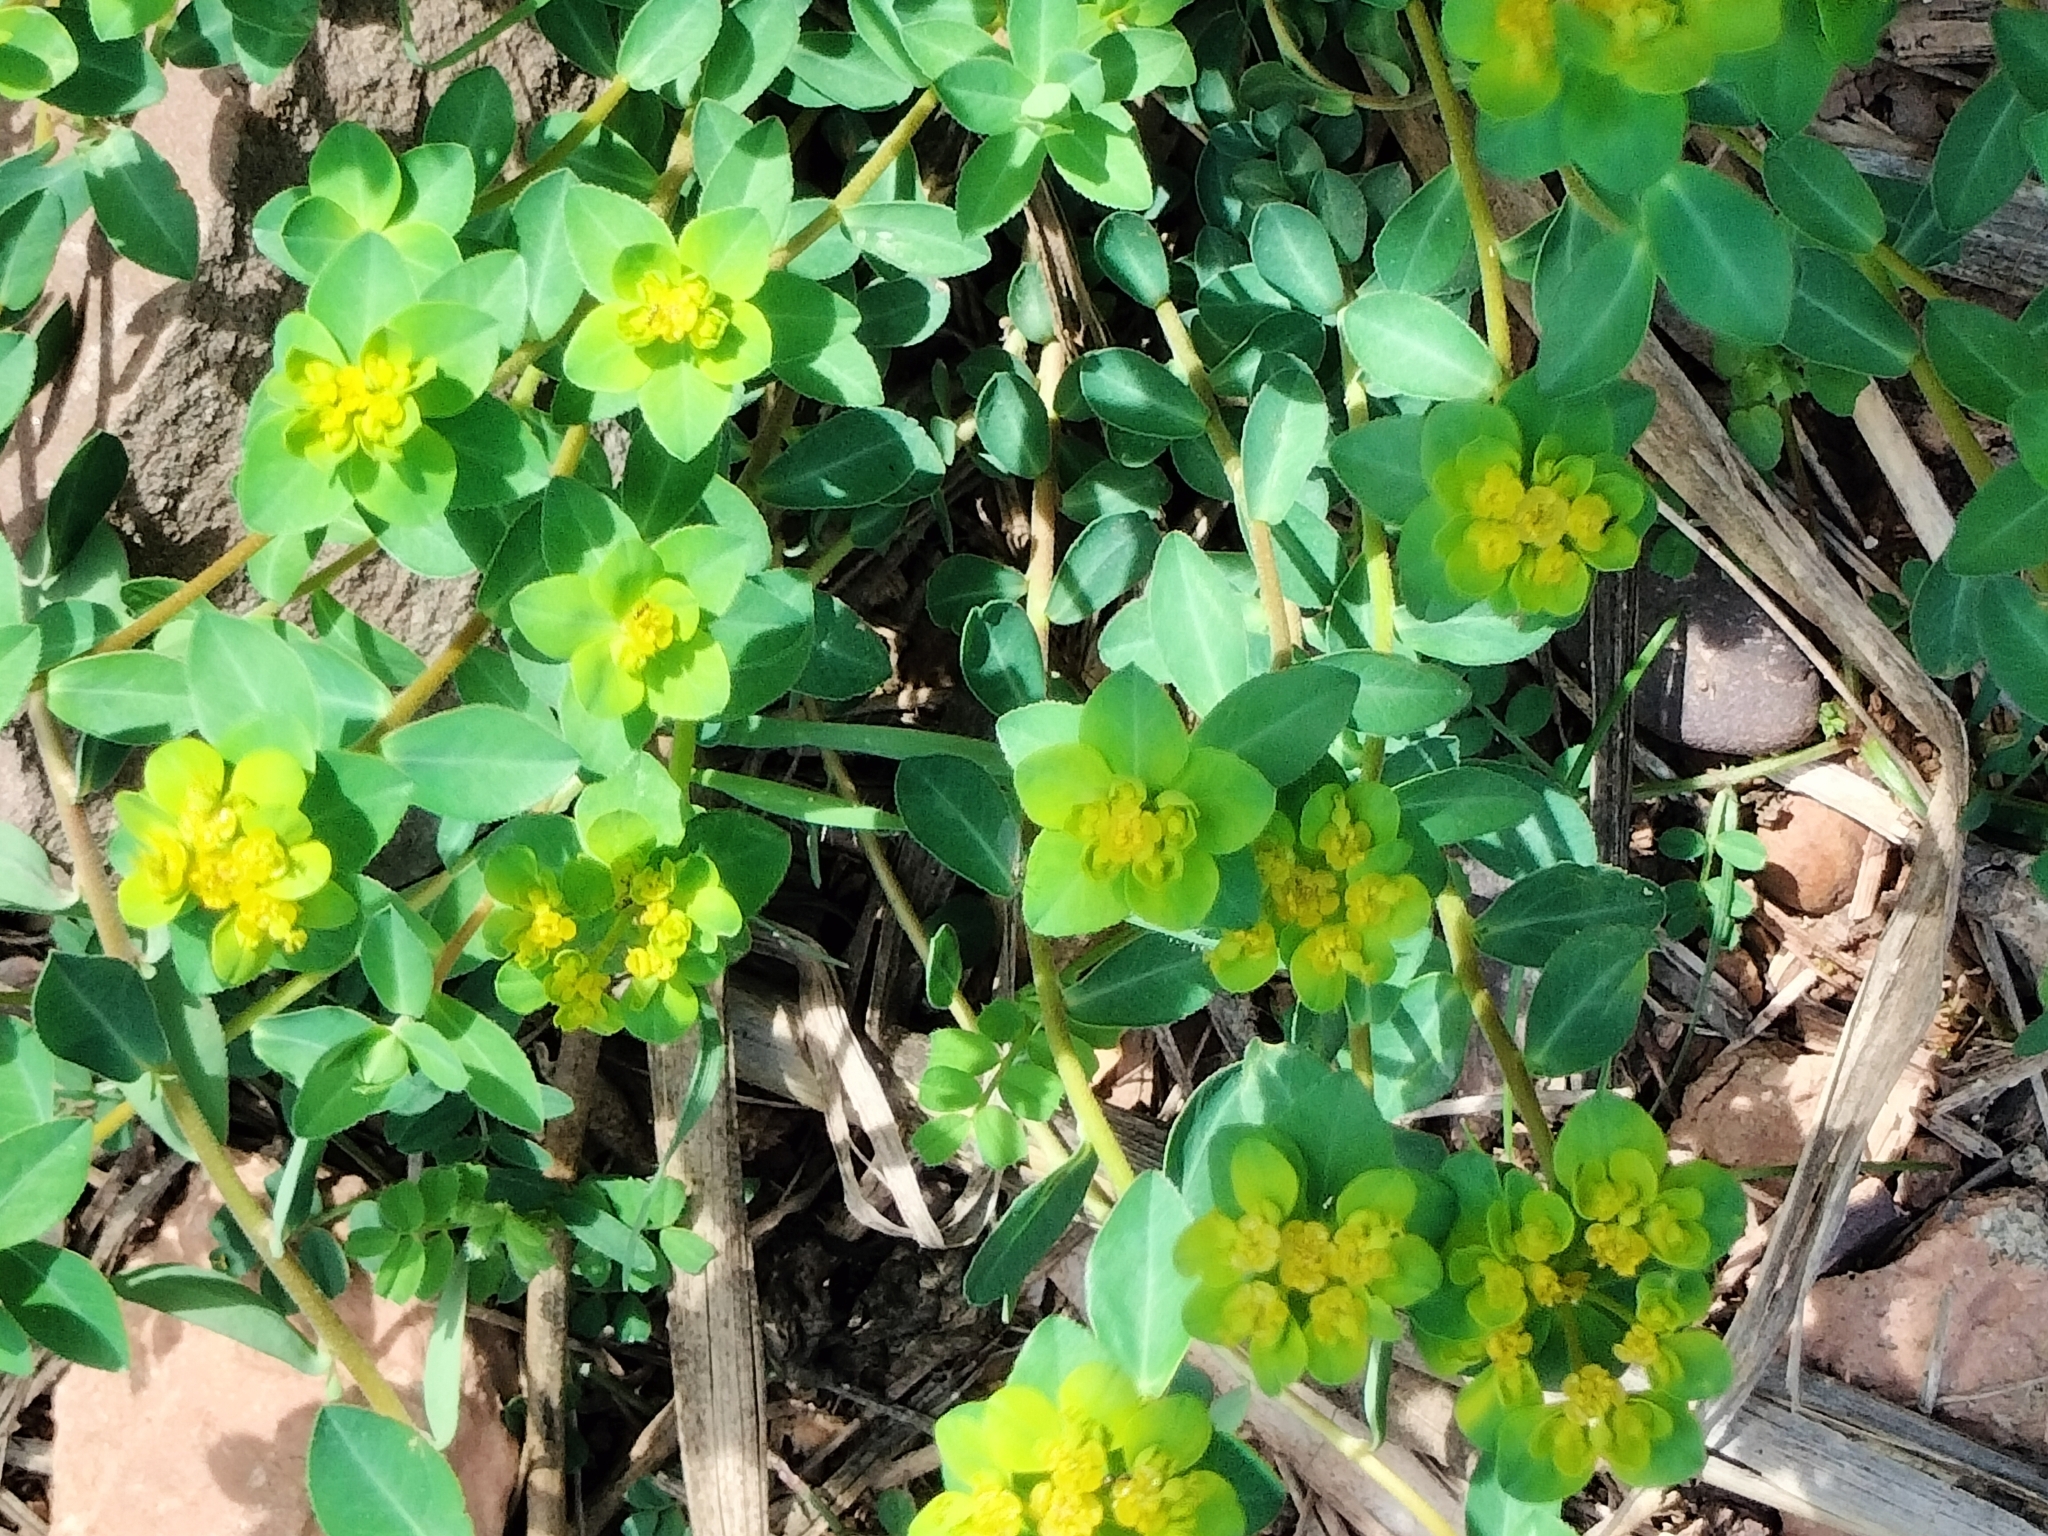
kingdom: Plantae
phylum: Tracheophyta
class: Magnoliopsida
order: Malpighiales
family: Euphorbiaceae
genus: Euphorbia
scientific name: Euphorbia flavicoma
